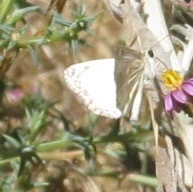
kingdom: Animalia
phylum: Arthropoda
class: Insecta
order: Lepidoptera
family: Hesperiidae
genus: Heliopetes
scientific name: Heliopetes ericetorum
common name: Northern white-skipper
